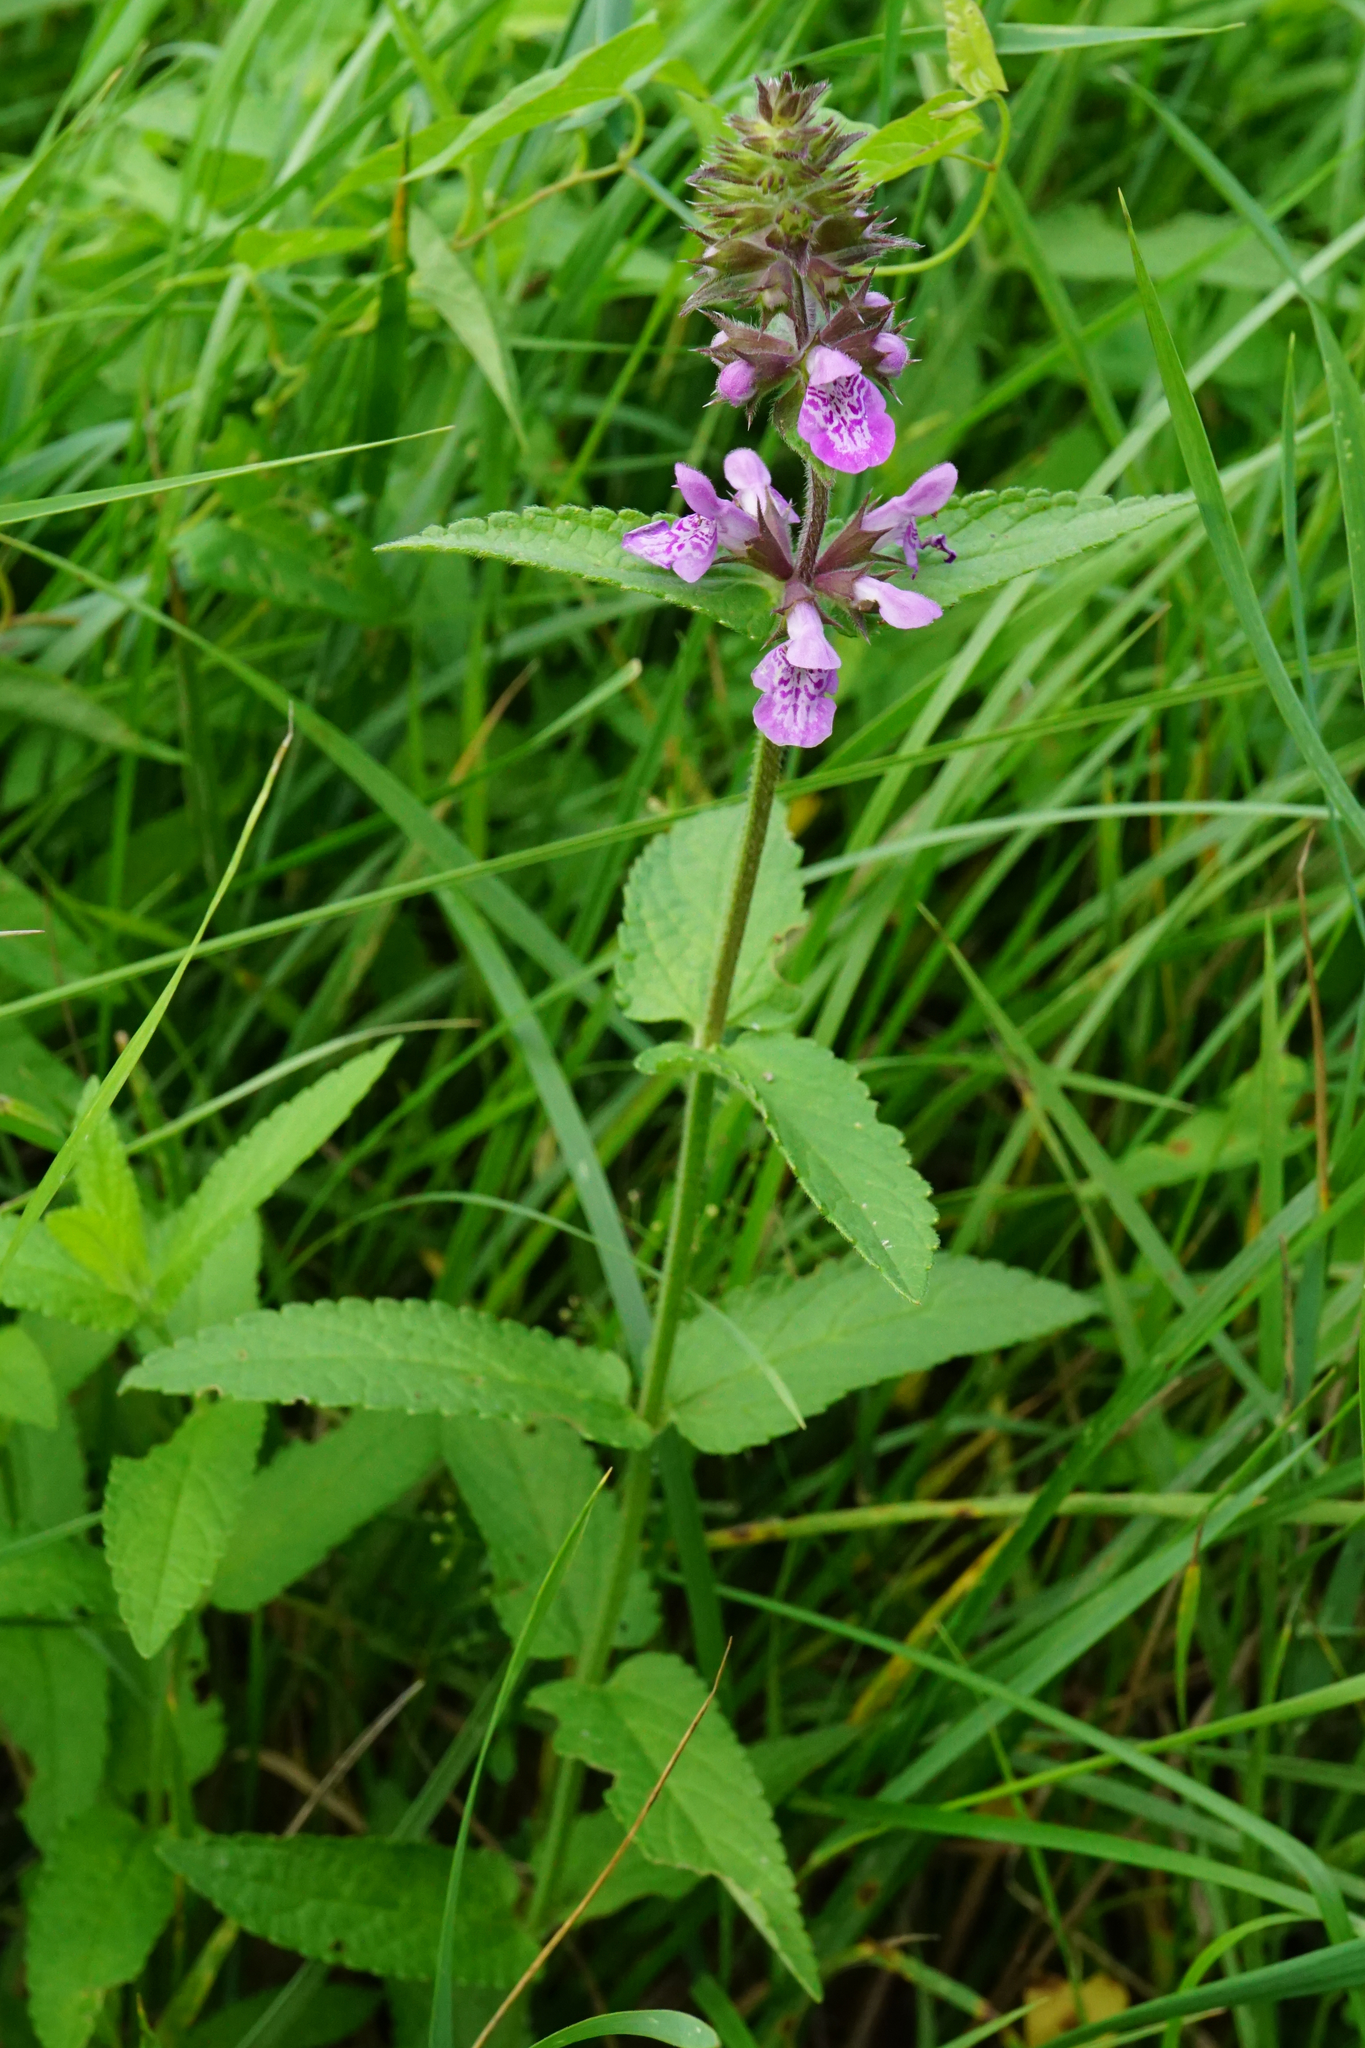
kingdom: Plantae
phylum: Tracheophyta
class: Magnoliopsida
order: Lamiales
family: Lamiaceae
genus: Stachys
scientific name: Stachys palustris
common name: Marsh woundwort
